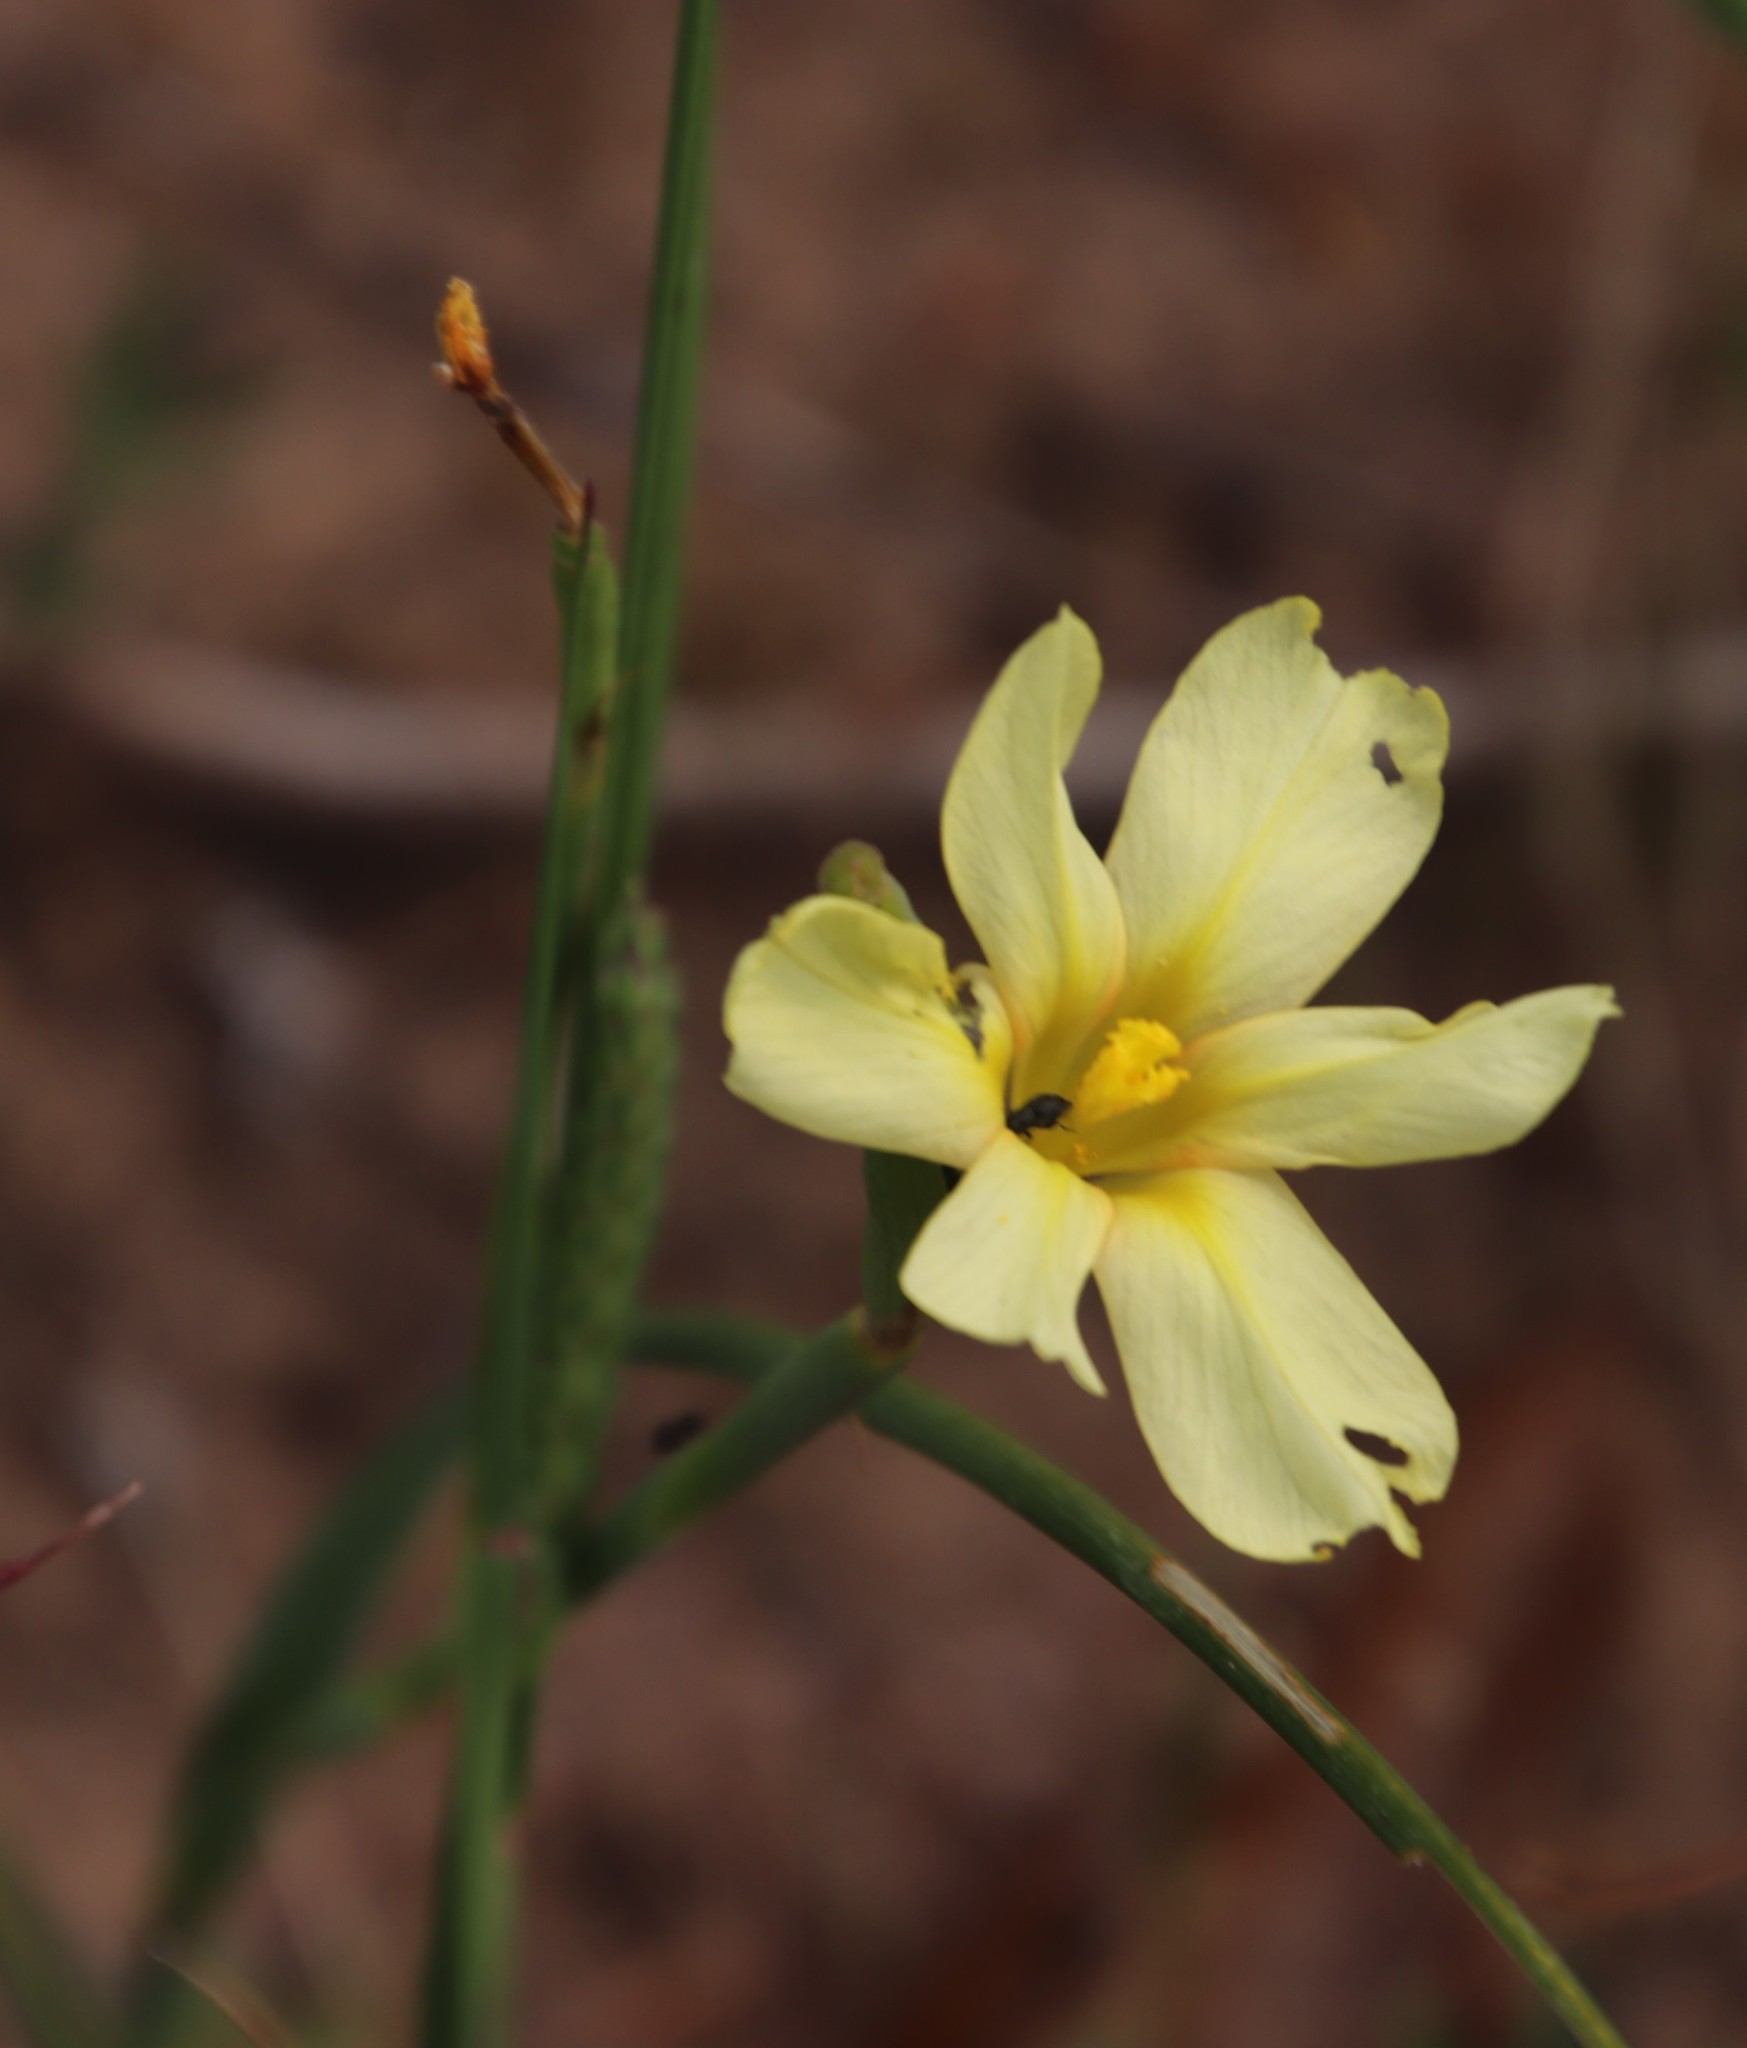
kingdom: Plantae
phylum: Tracheophyta
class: Liliopsida
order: Asparagales
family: Iridaceae
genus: Moraea
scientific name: Moraea collina
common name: Cape-tulip
